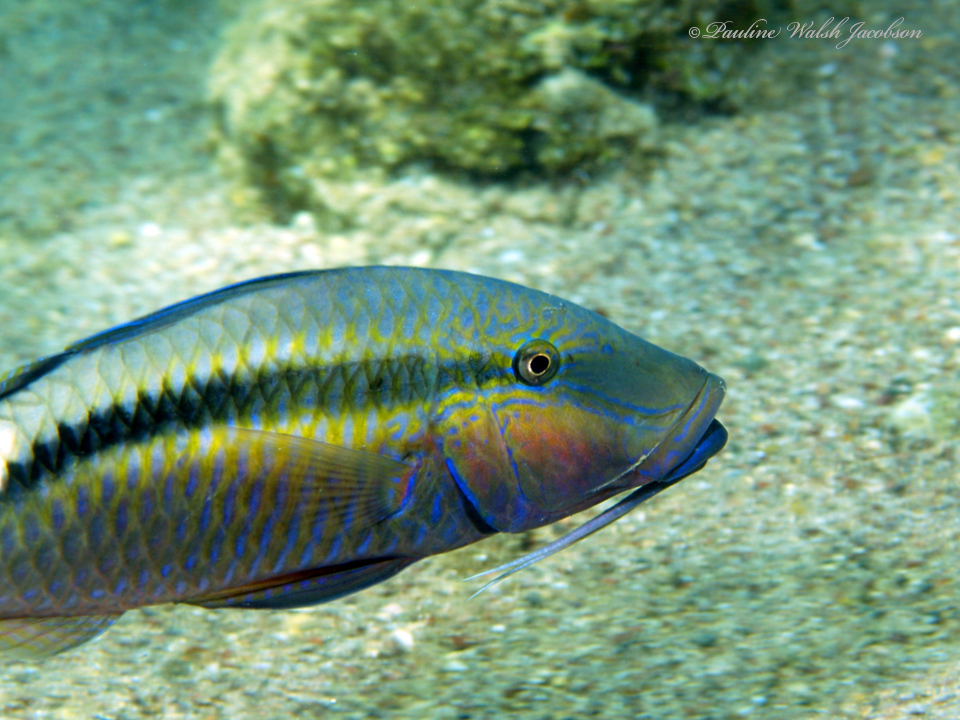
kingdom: Animalia
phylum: Chordata
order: Perciformes
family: Mullidae
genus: Parupeneus
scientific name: Parupeneus macronemus
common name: Long-barbel goatfish
